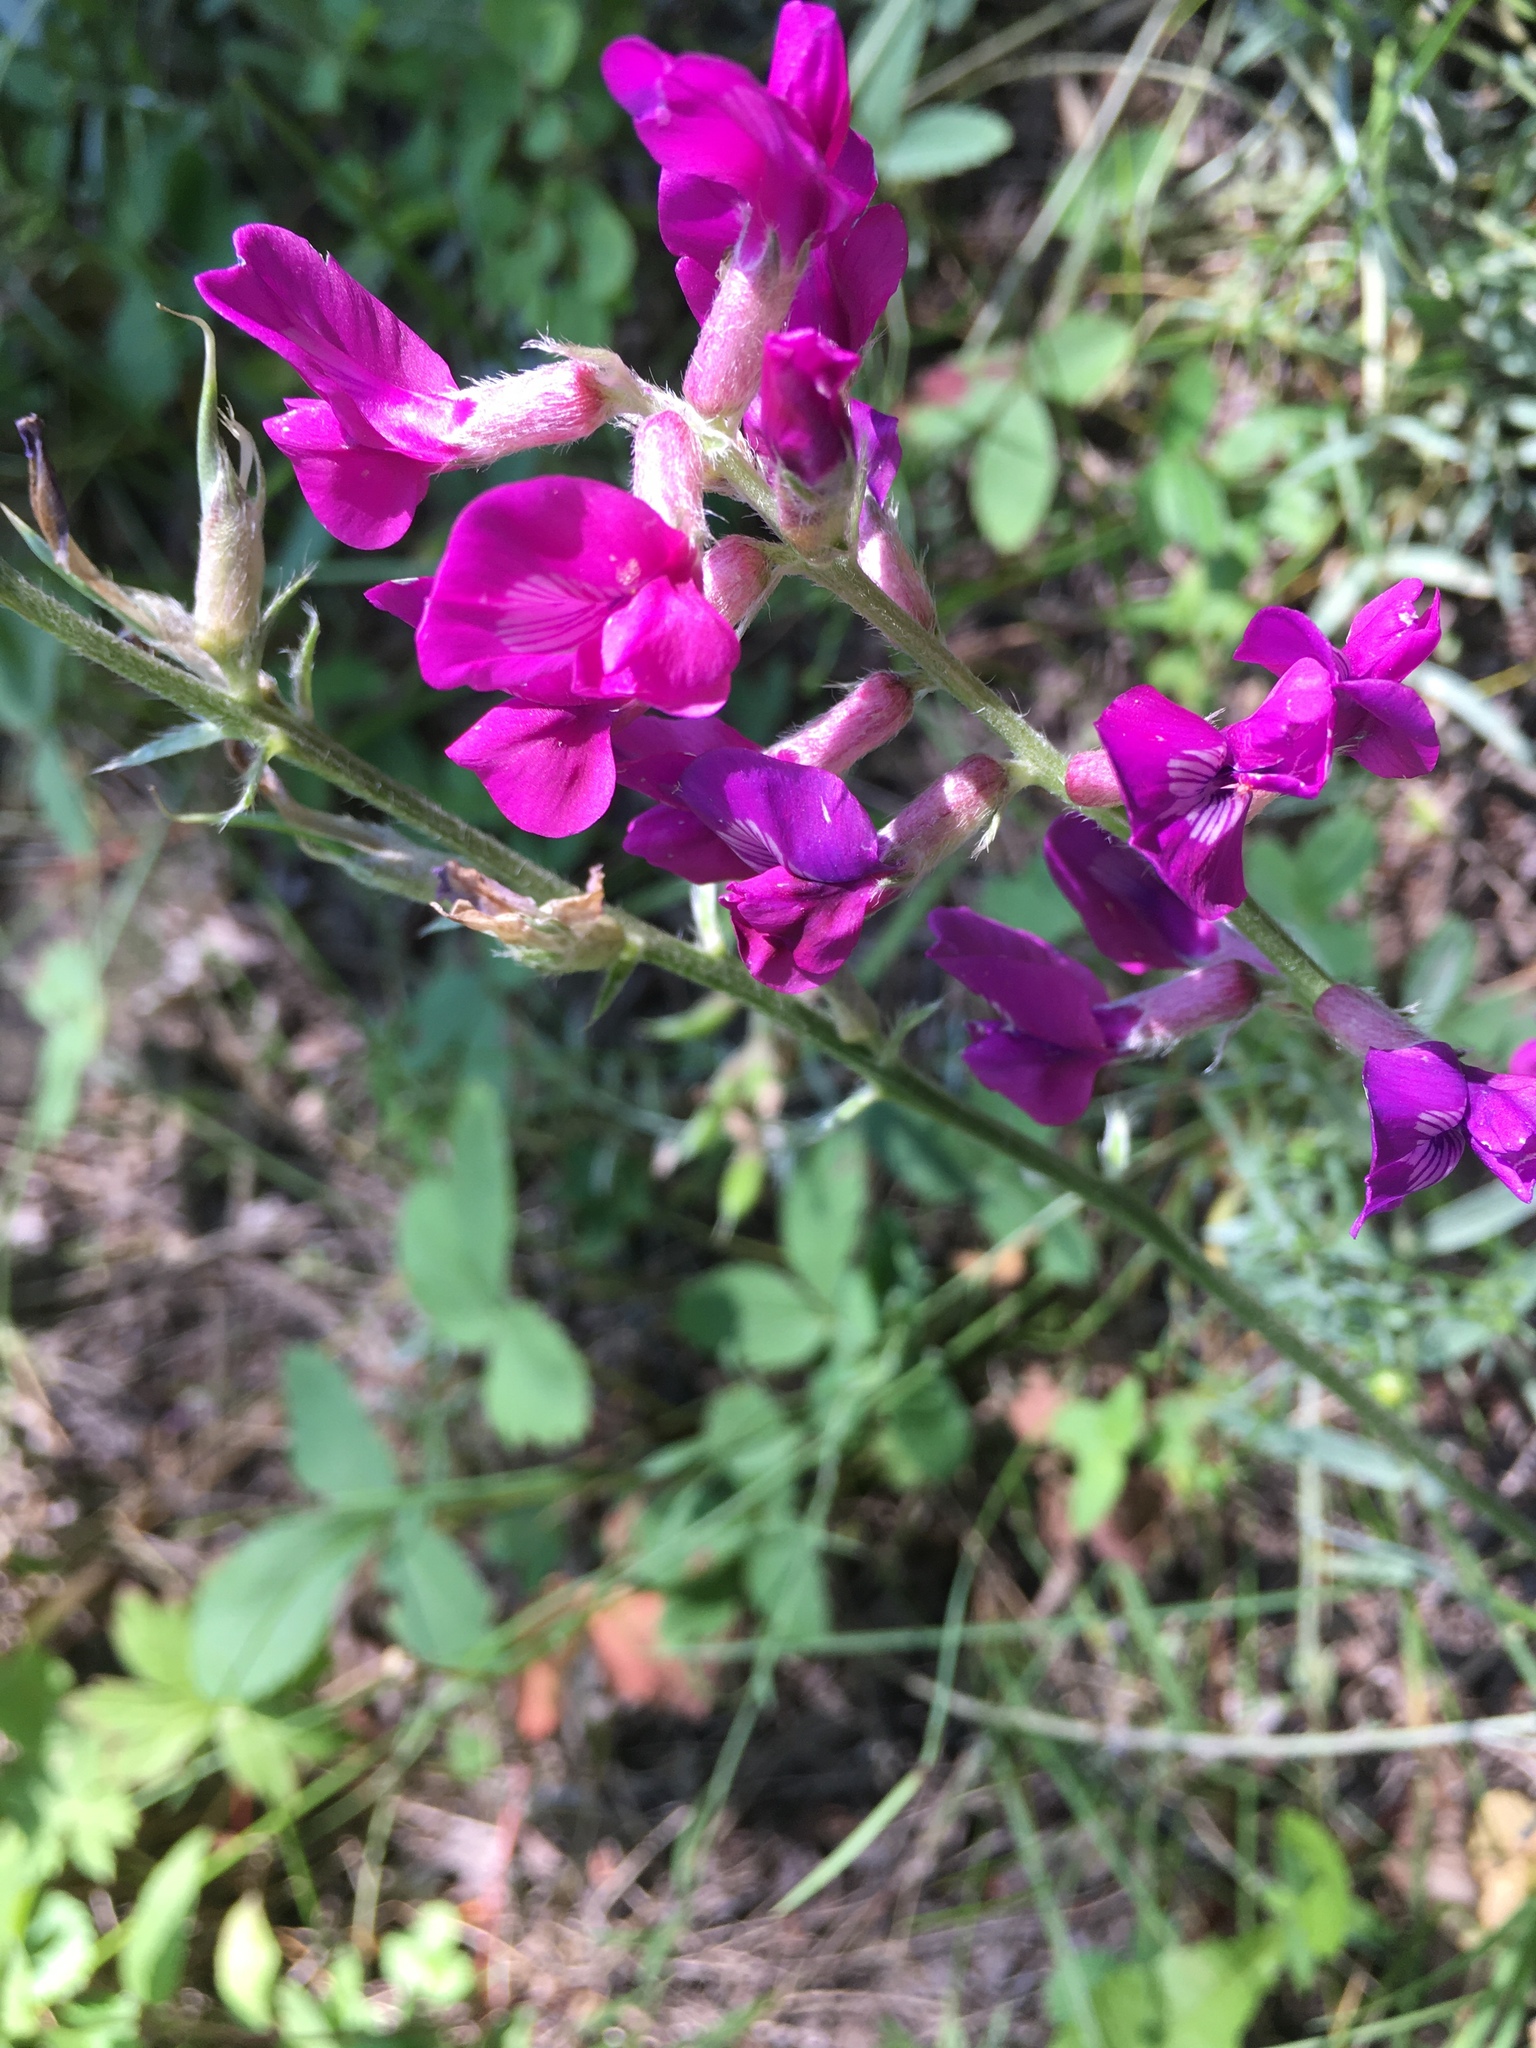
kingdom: Plantae
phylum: Tracheophyta
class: Magnoliopsida
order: Fabales
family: Fabaceae
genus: Oxytropis
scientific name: Oxytropis lambertii
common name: Purple locoweed
